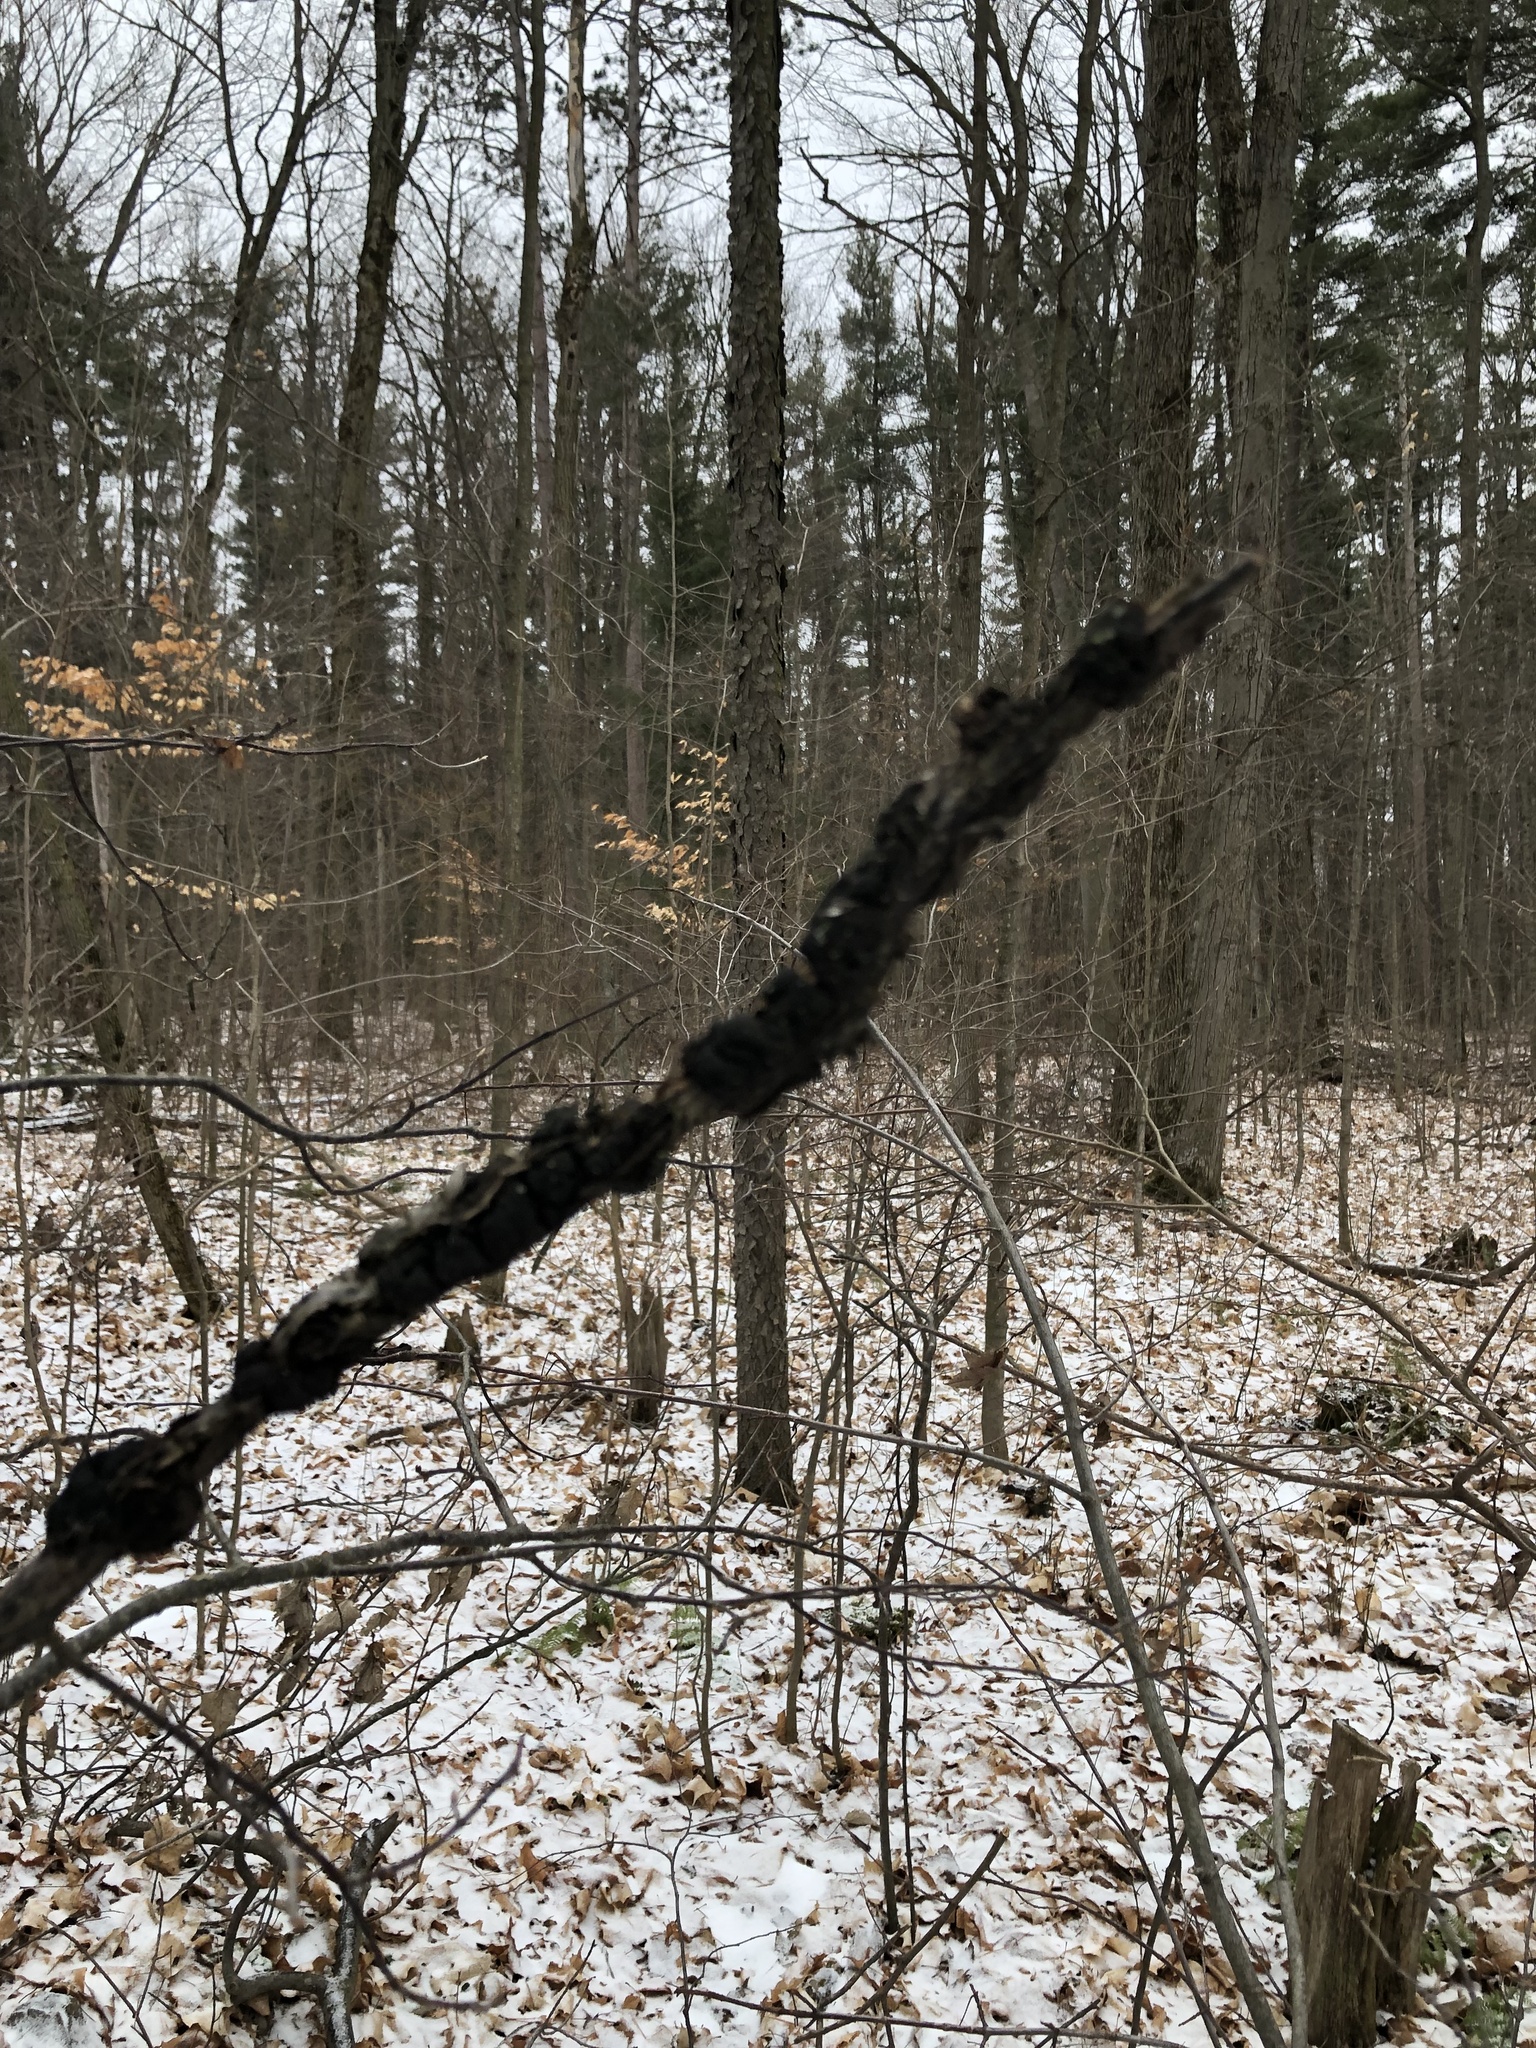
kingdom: Fungi
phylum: Ascomycota
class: Dothideomycetes
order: Venturiales
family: Venturiaceae
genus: Apiosporina
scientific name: Apiosporina morbosa
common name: Black knot
